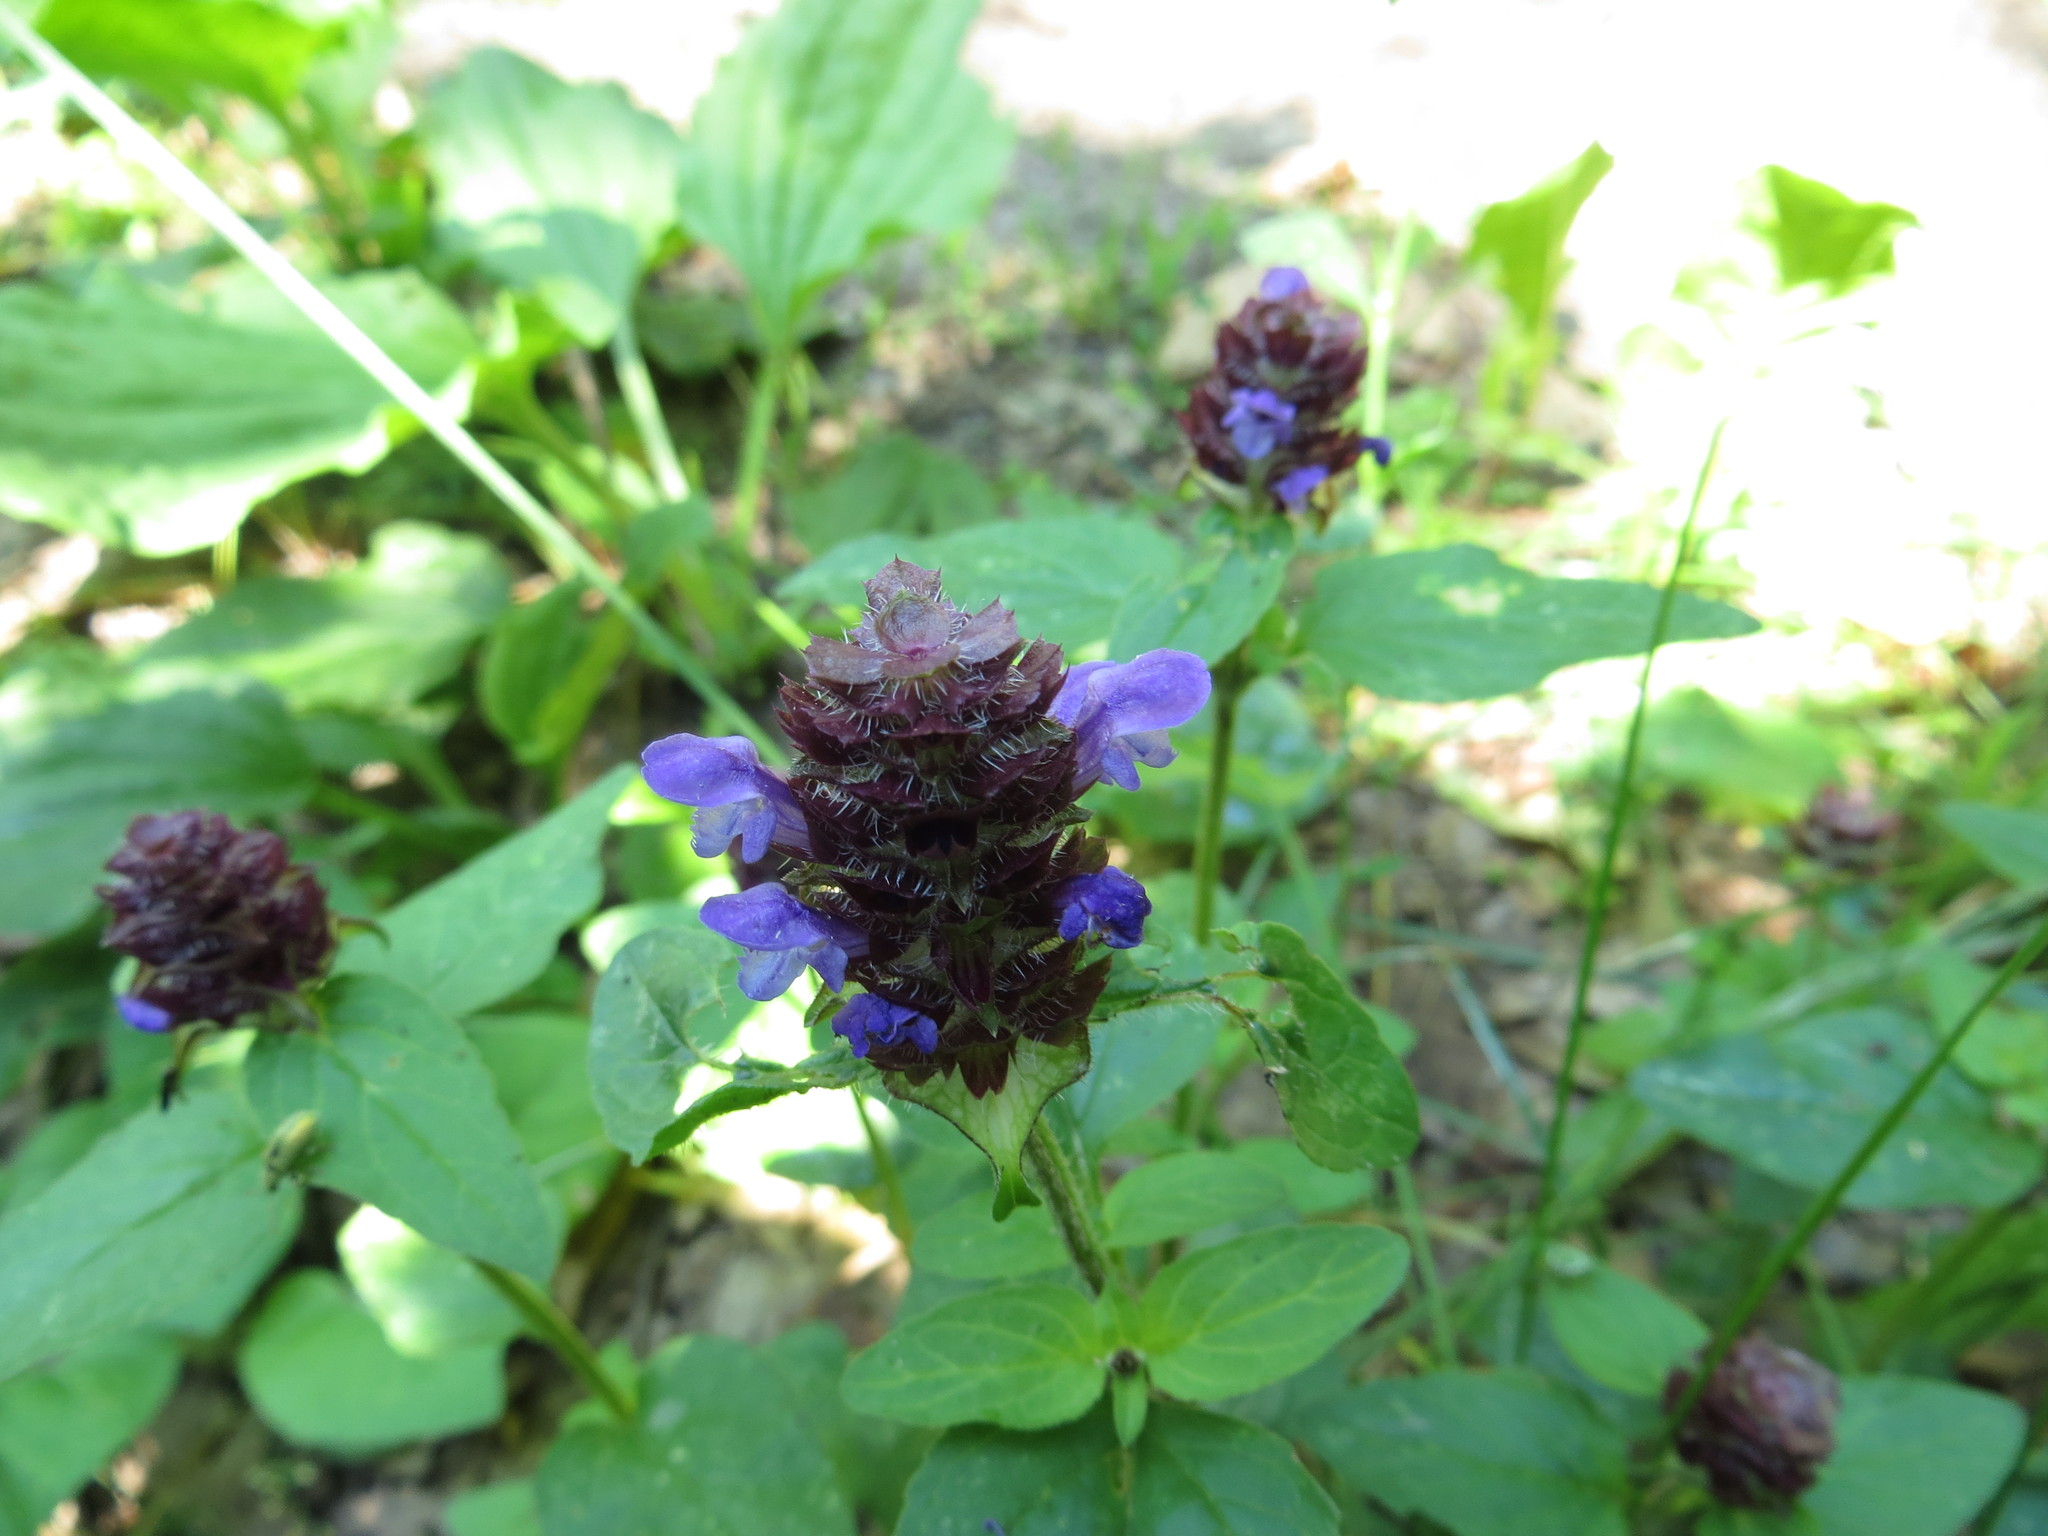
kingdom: Plantae
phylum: Tracheophyta
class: Magnoliopsida
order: Lamiales
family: Lamiaceae
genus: Prunella
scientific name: Prunella vulgaris
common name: Heal-all
